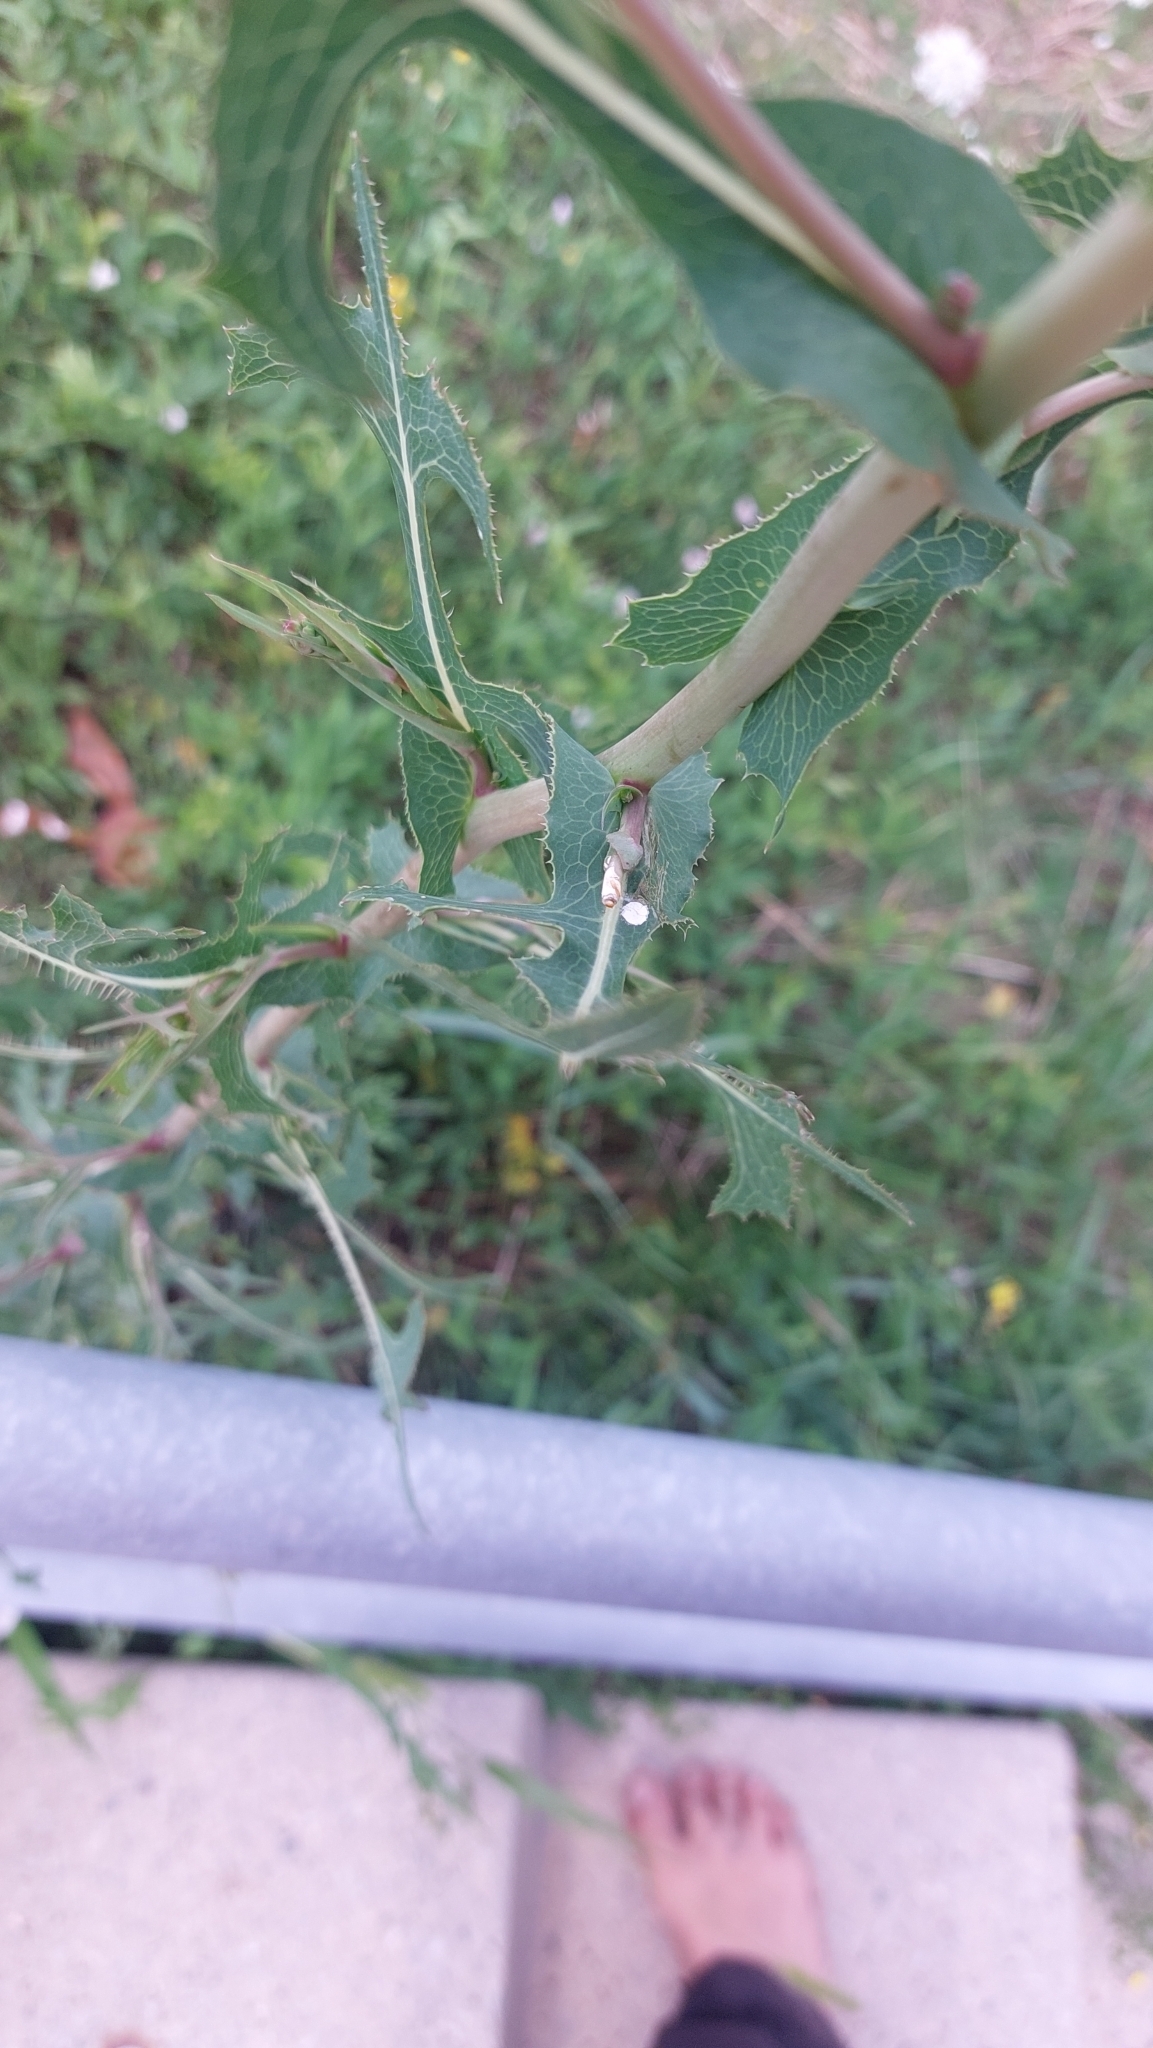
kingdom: Plantae
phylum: Tracheophyta
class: Magnoliopsida
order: Asterales
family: Asteraceae
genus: Lactuca
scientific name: Lactuca serriola
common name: Prickly lettuce
